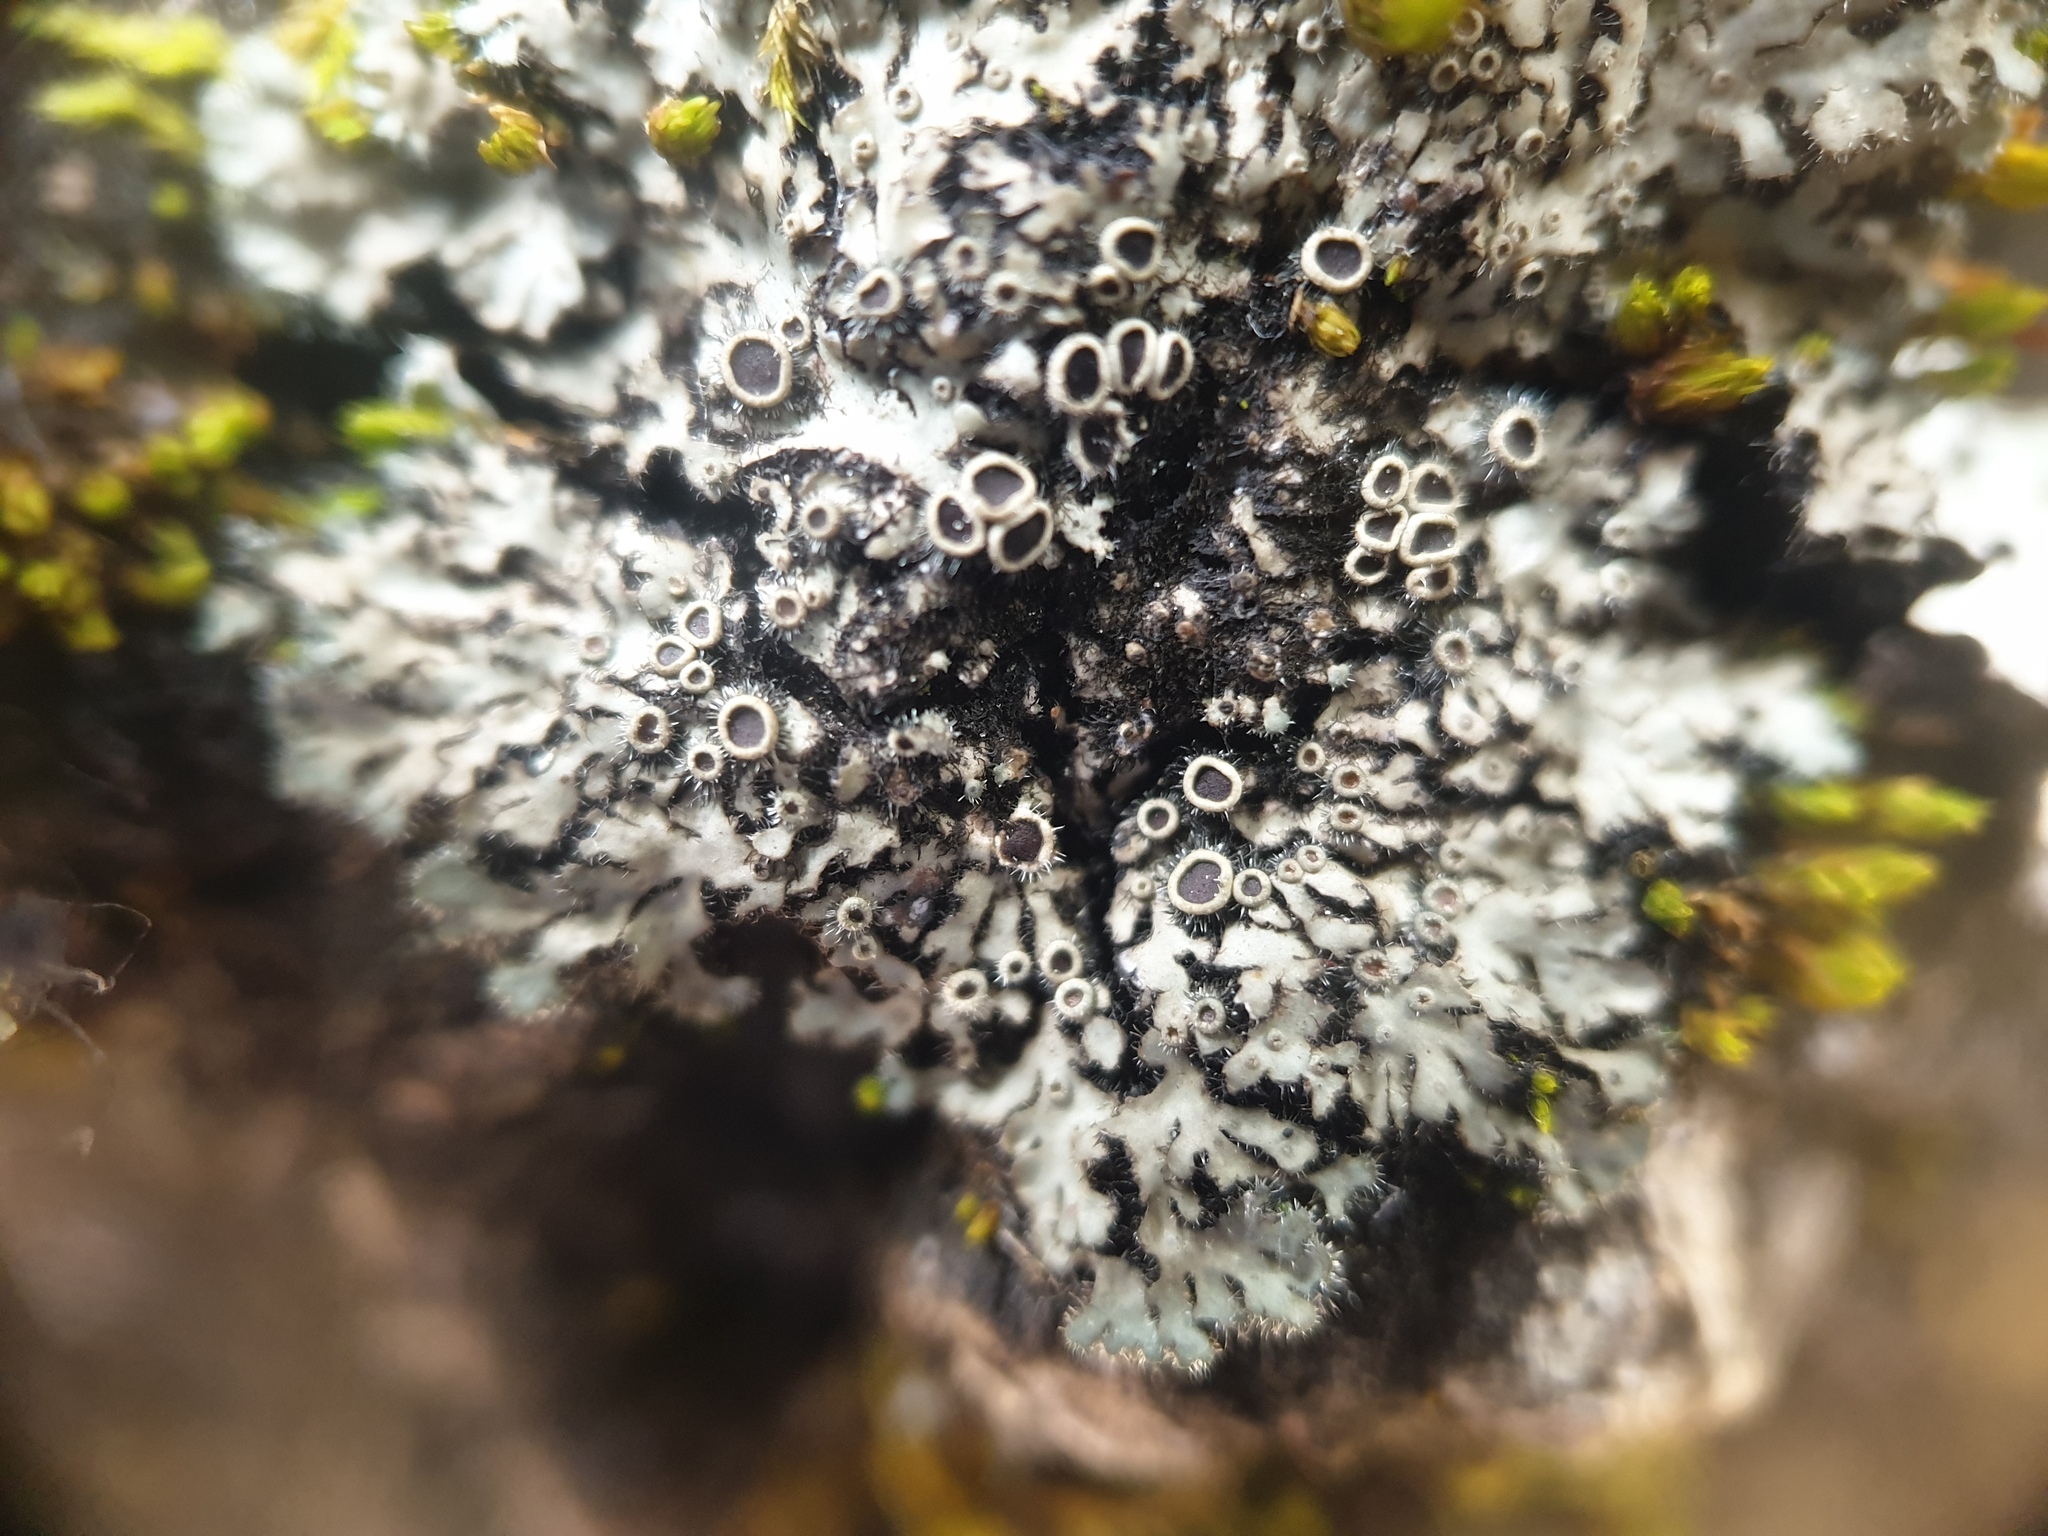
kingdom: Fungi
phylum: Ascomycota
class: Lecanoromycetes
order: Caliciales
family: Physciaceae
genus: Phaeophyscia
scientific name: Phaeophyscia ciliata
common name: Smooth shadow lichen
